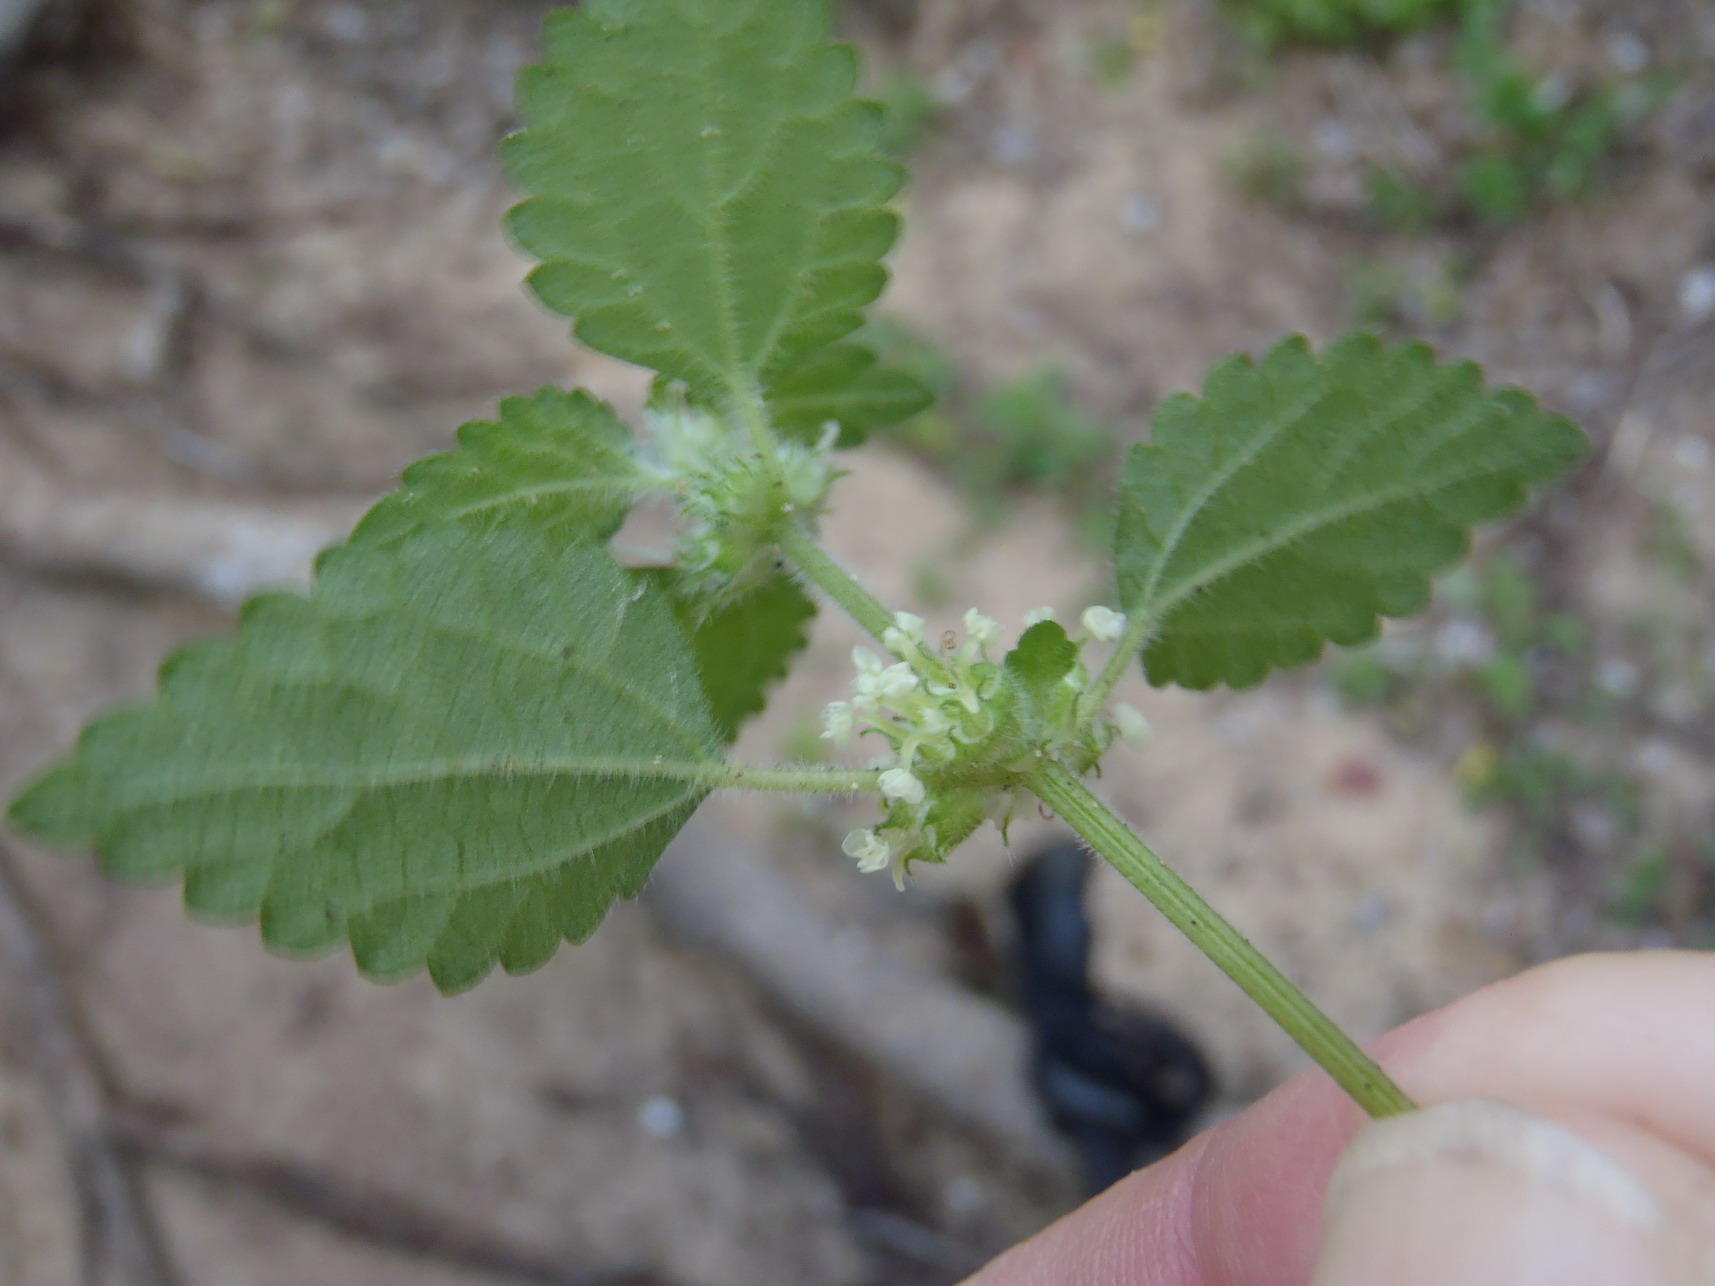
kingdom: Plantae
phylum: Tracheophyta
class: Magnoliopsida
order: Rosales
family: Urticaceae
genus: Droguetia
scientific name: Droguetia iners
